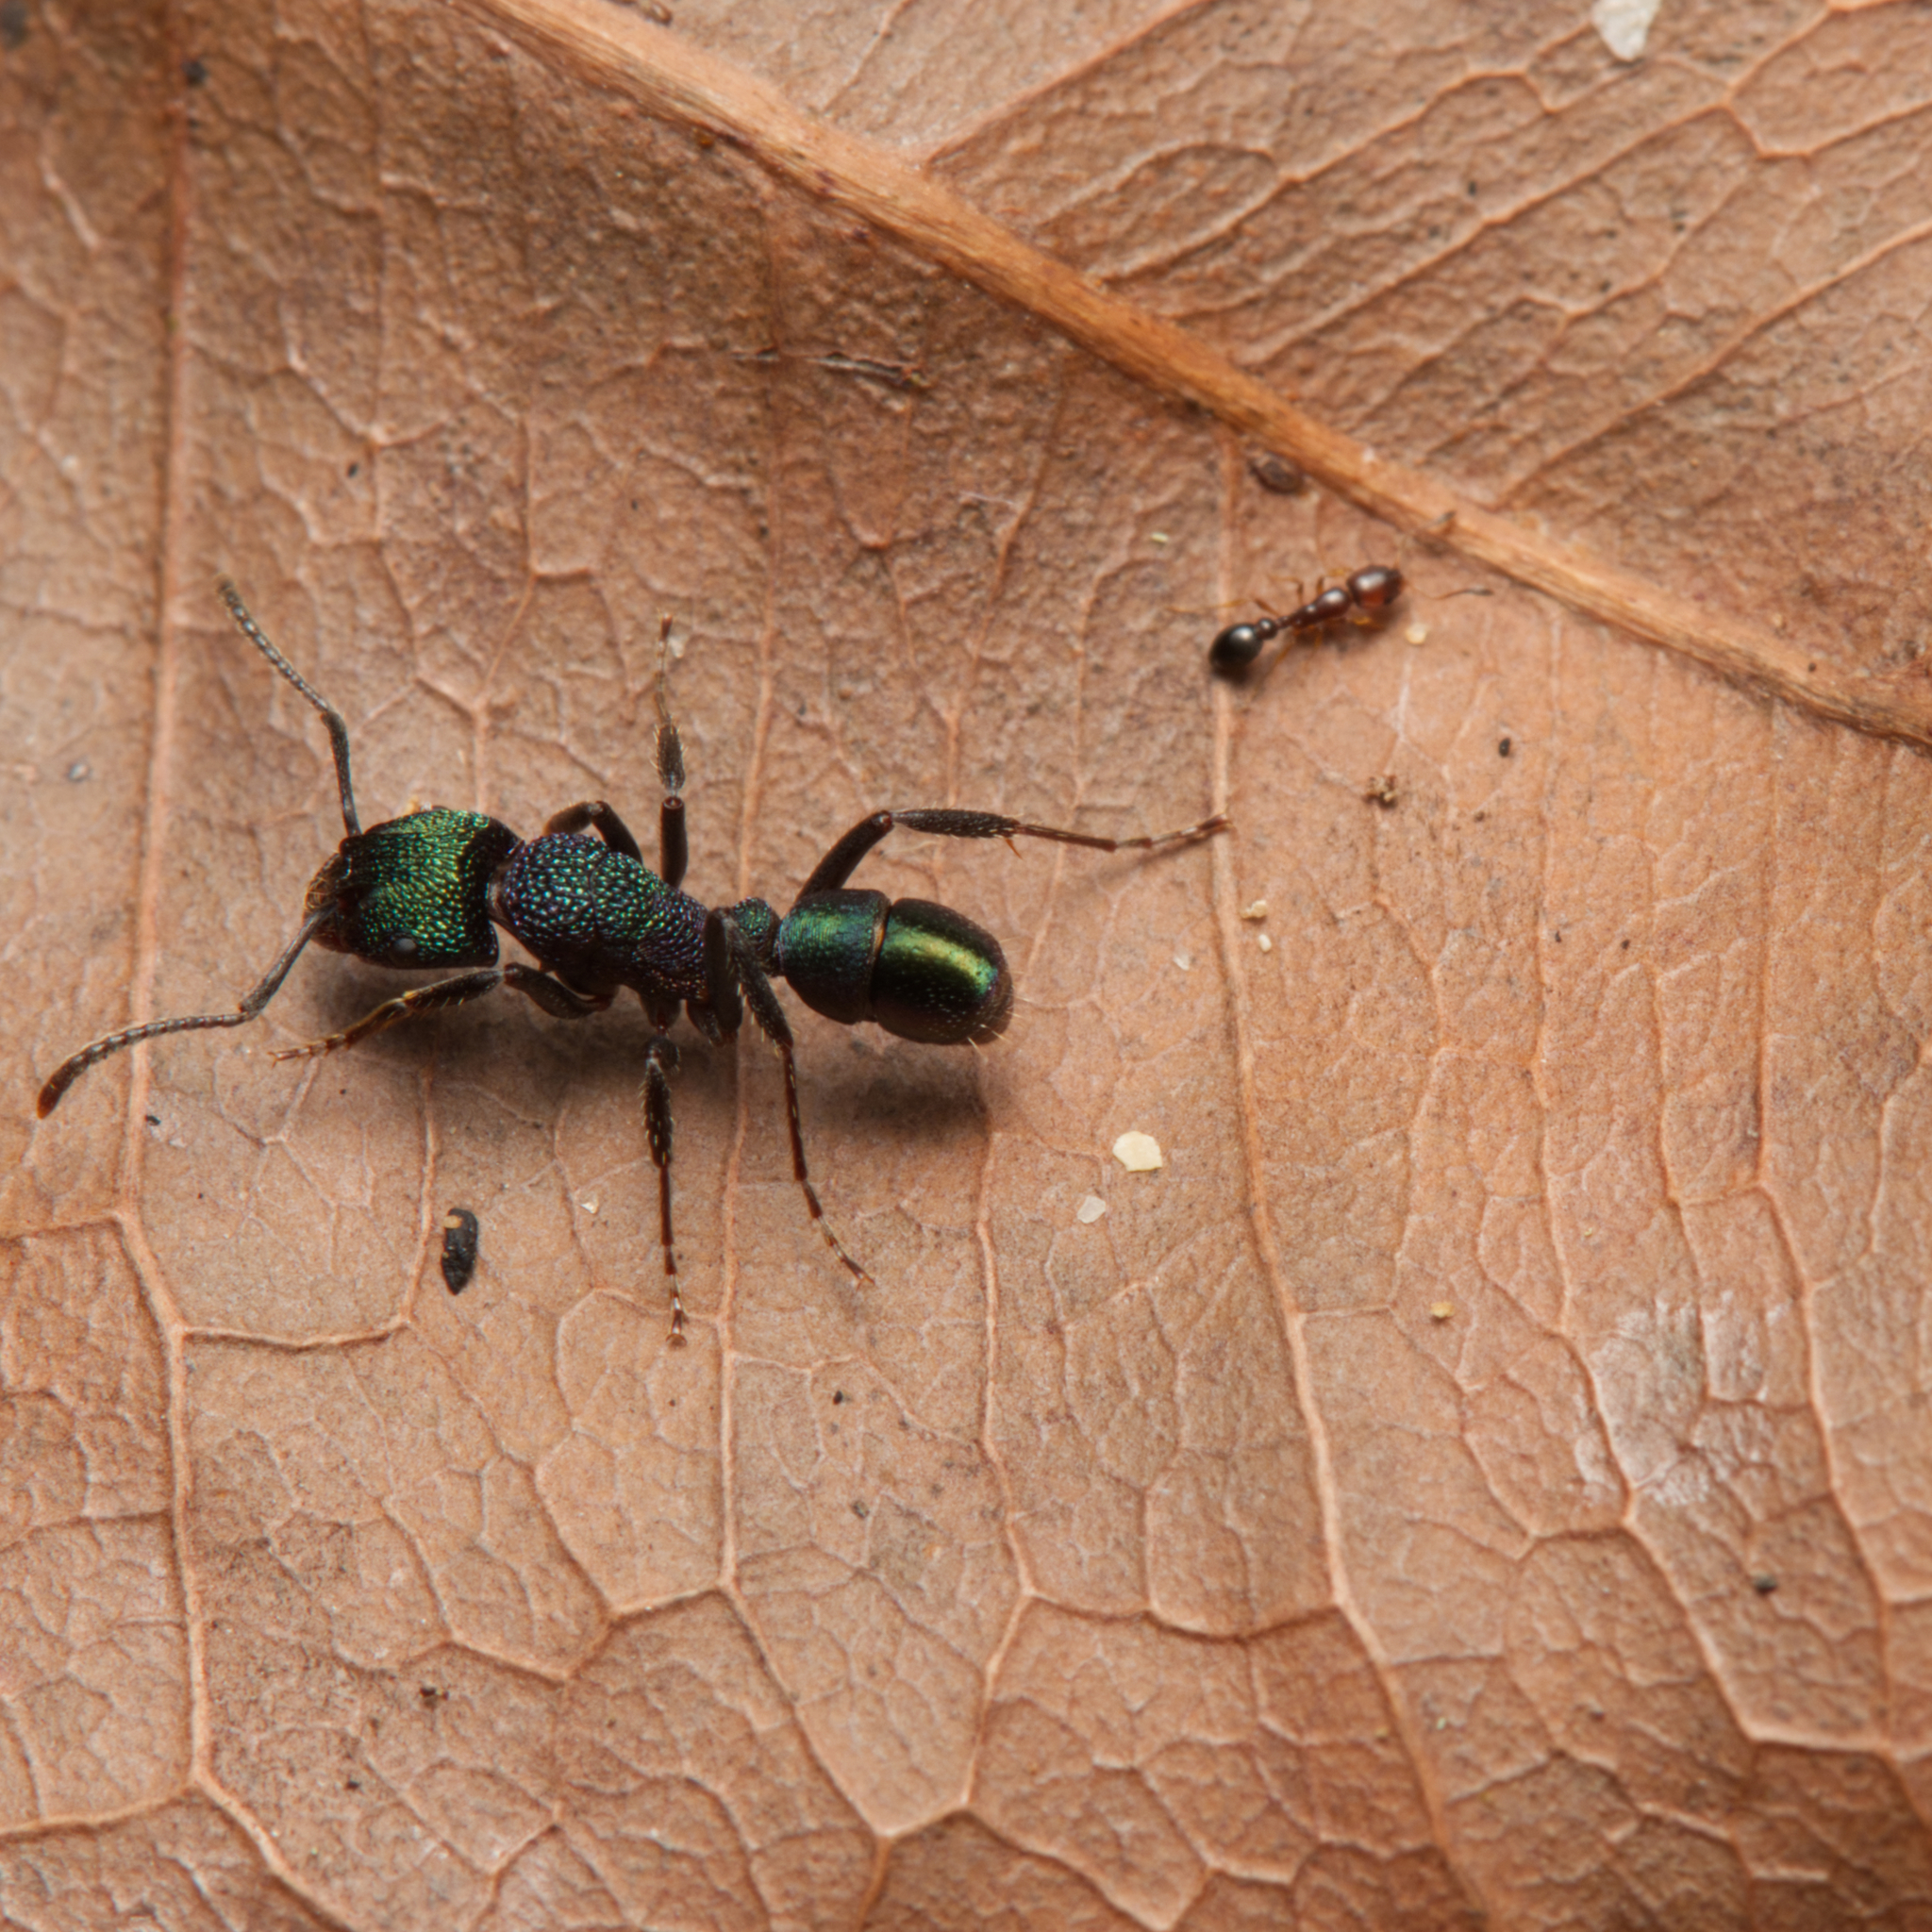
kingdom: Animalia
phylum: Arthropoda
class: Insecta
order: Hymenoptera
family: Formicidae
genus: Rhytidoponera
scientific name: Rhytidoponera metallica
